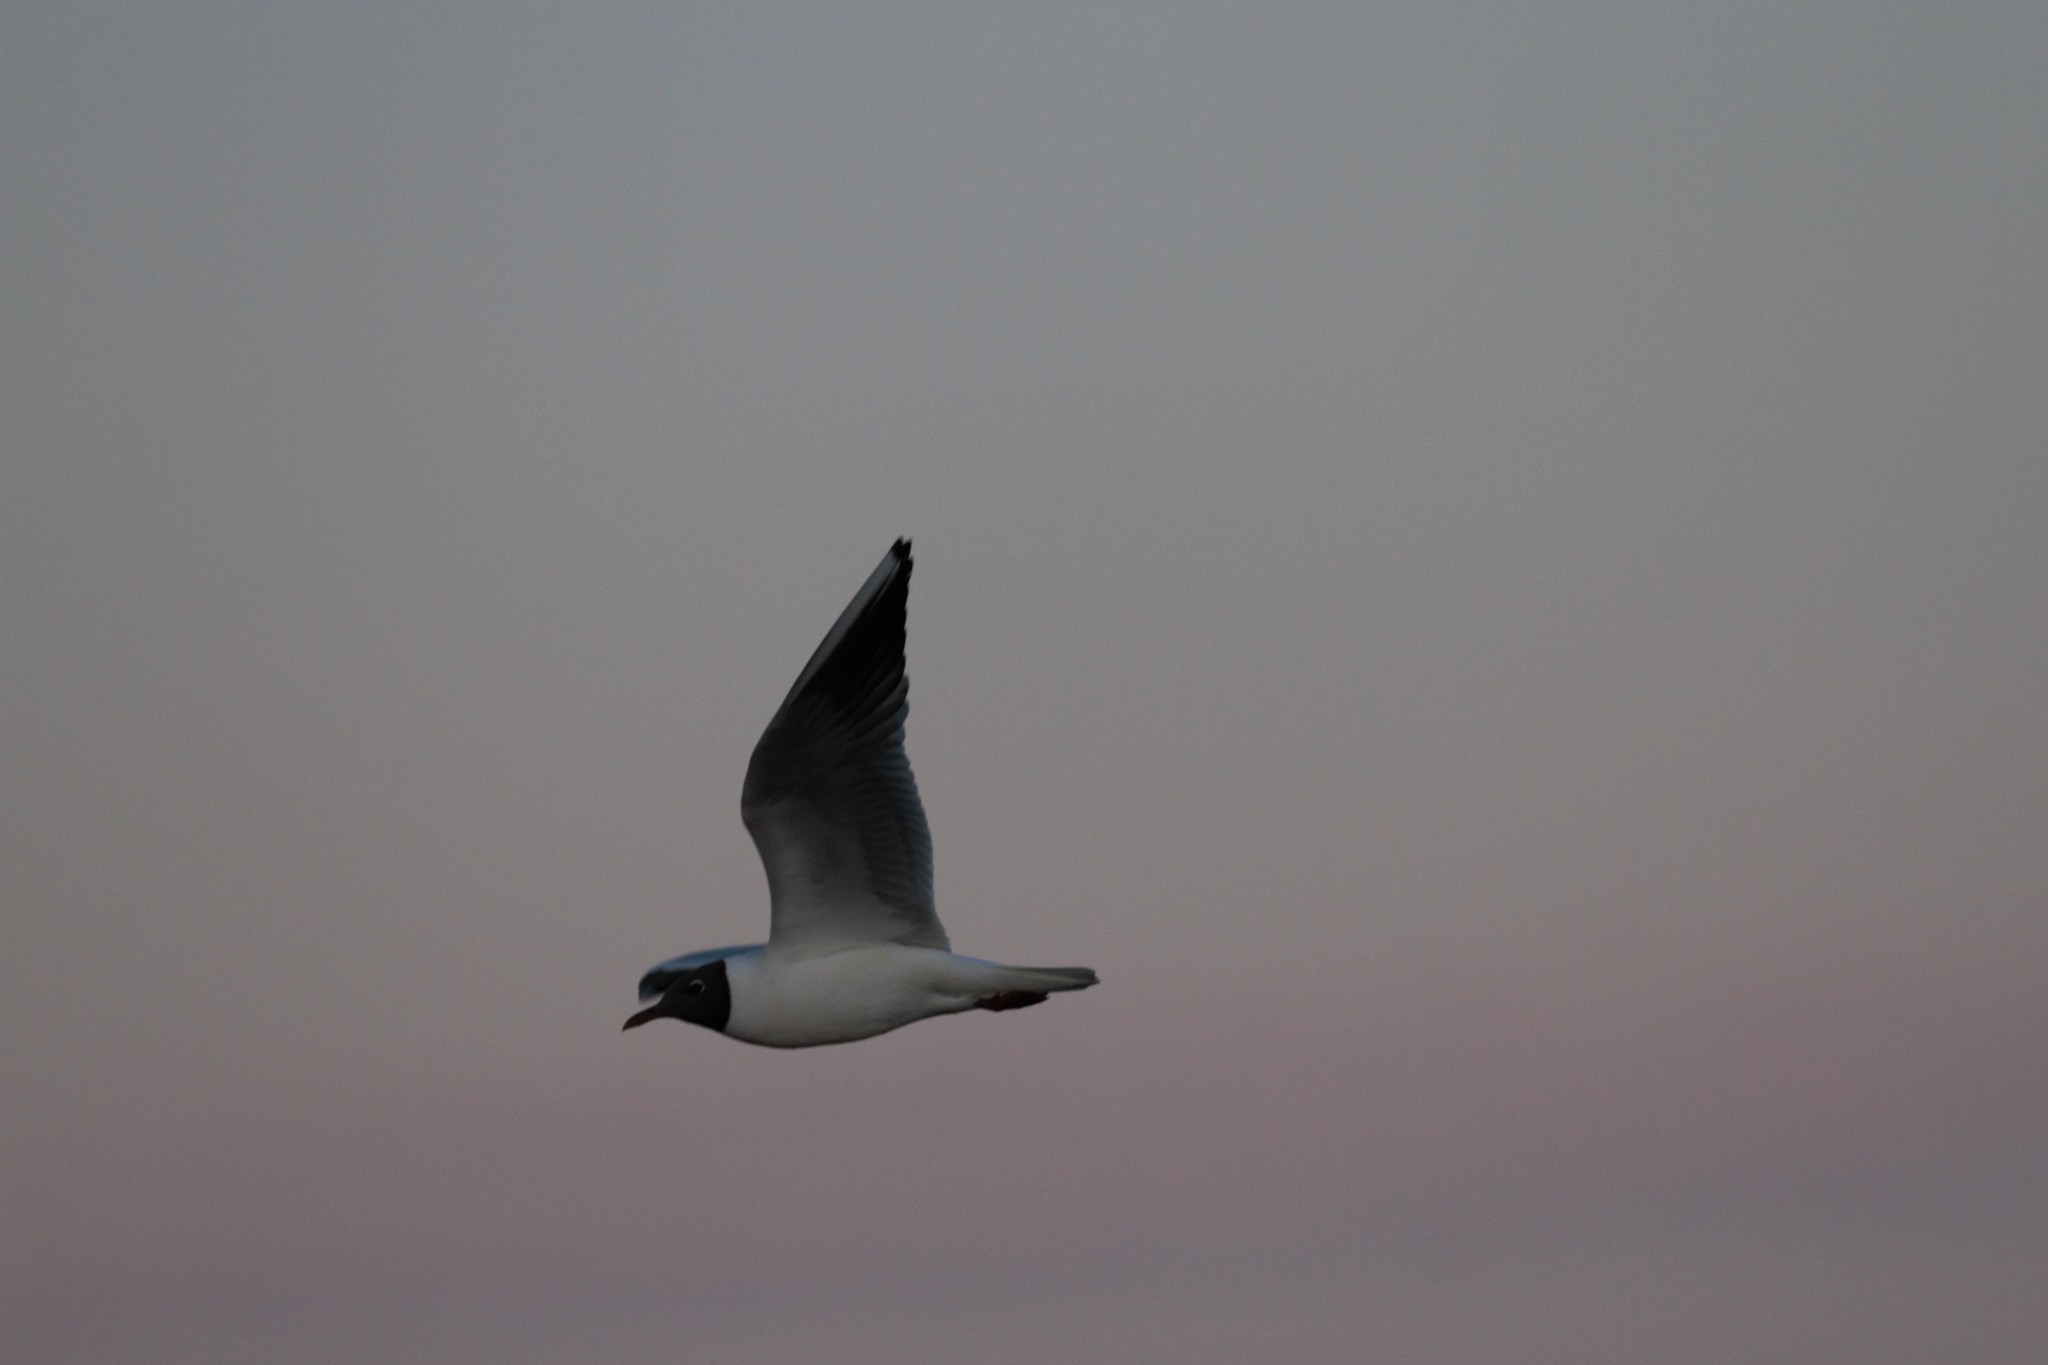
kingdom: Animalia
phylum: Chordata
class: Aves
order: Charadriiformes
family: Laridae
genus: Chroicocephalus
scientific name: Chroicocephalus ridibundus
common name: Black-headed gull
